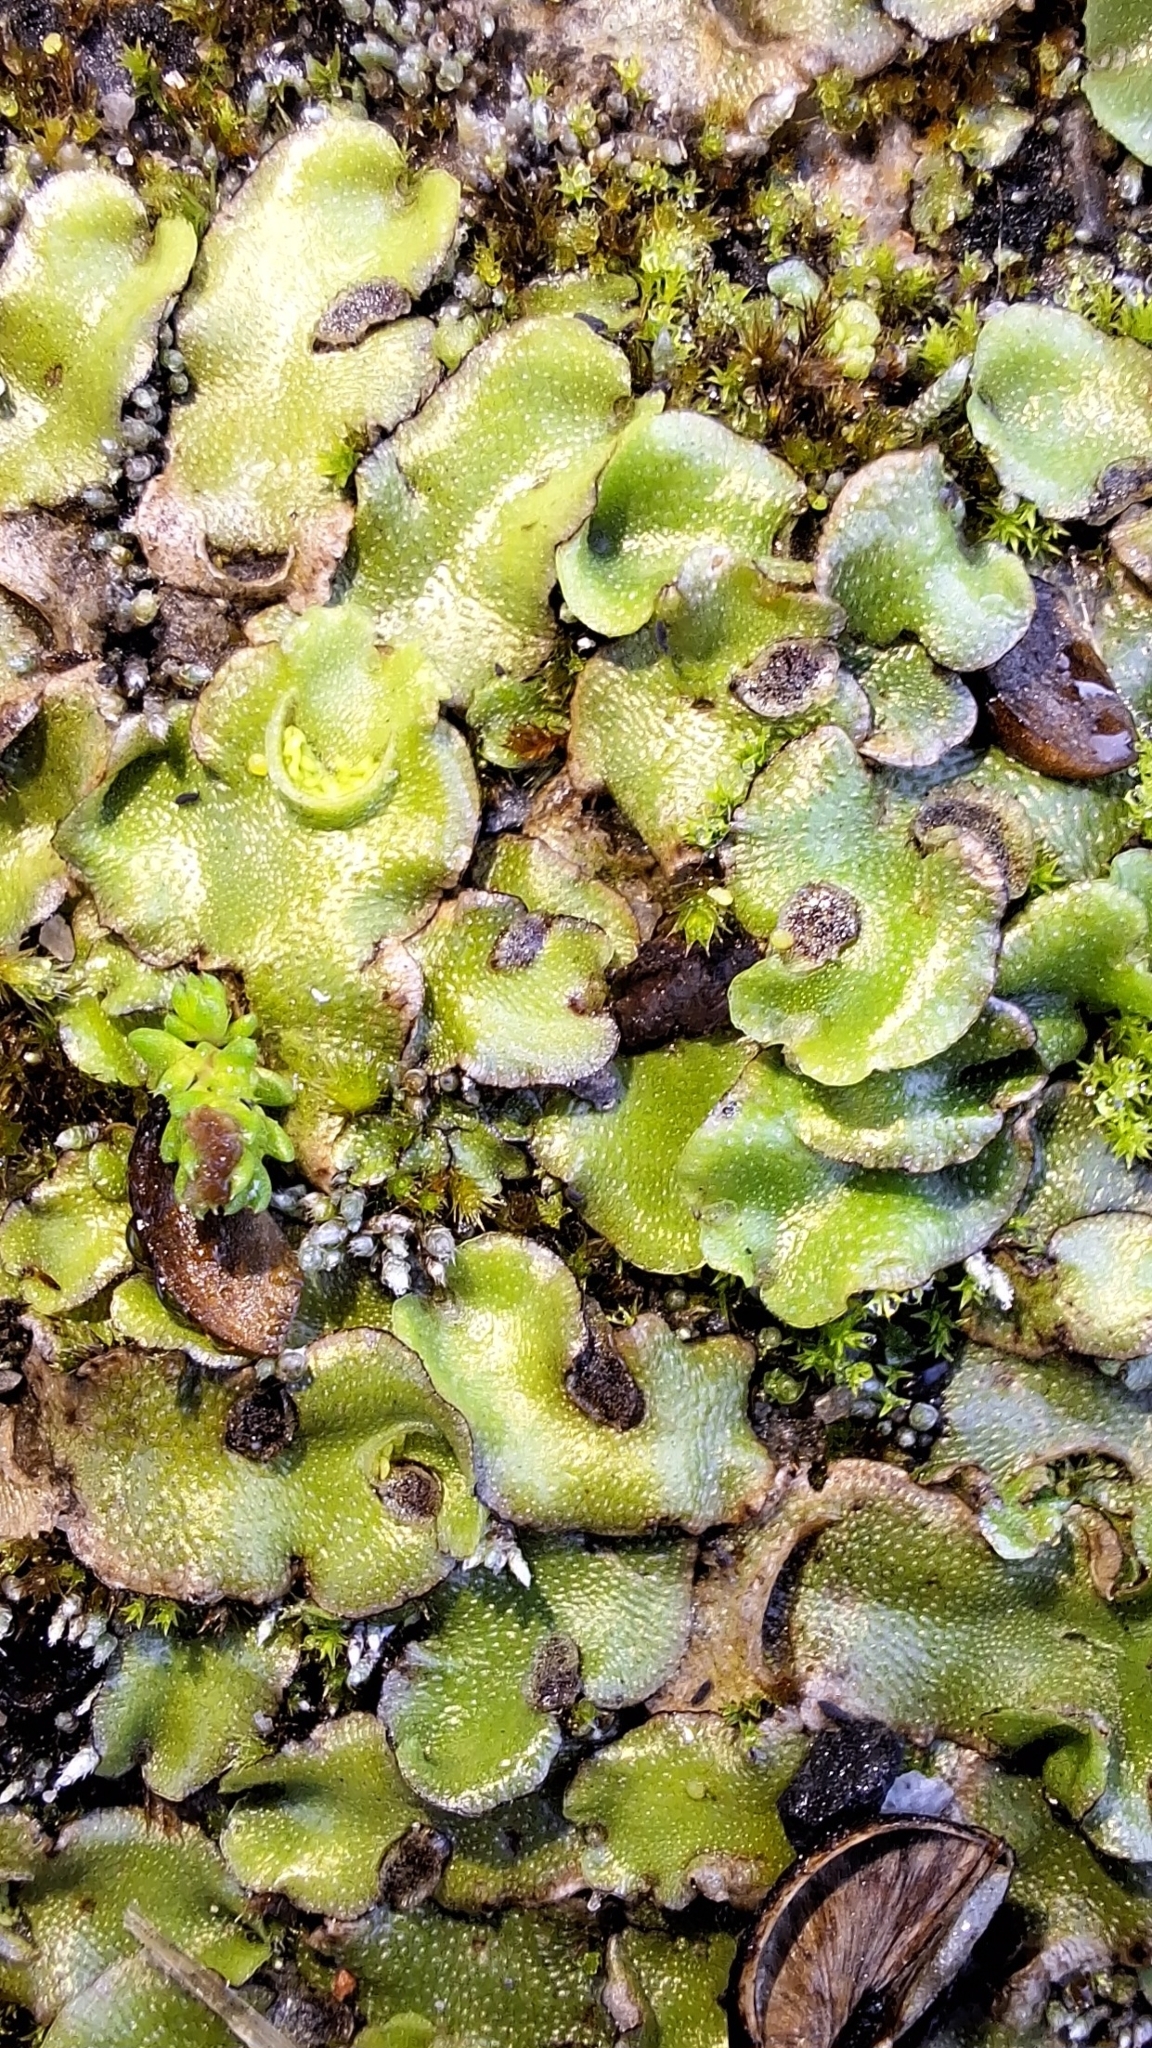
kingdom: Plantae
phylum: Marchantiophyta
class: Marchantiopsida
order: Lunulariales
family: Lunulariaceae
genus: Lunularia
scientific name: Lunularia cruciata
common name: Crescent-cup liverwort
